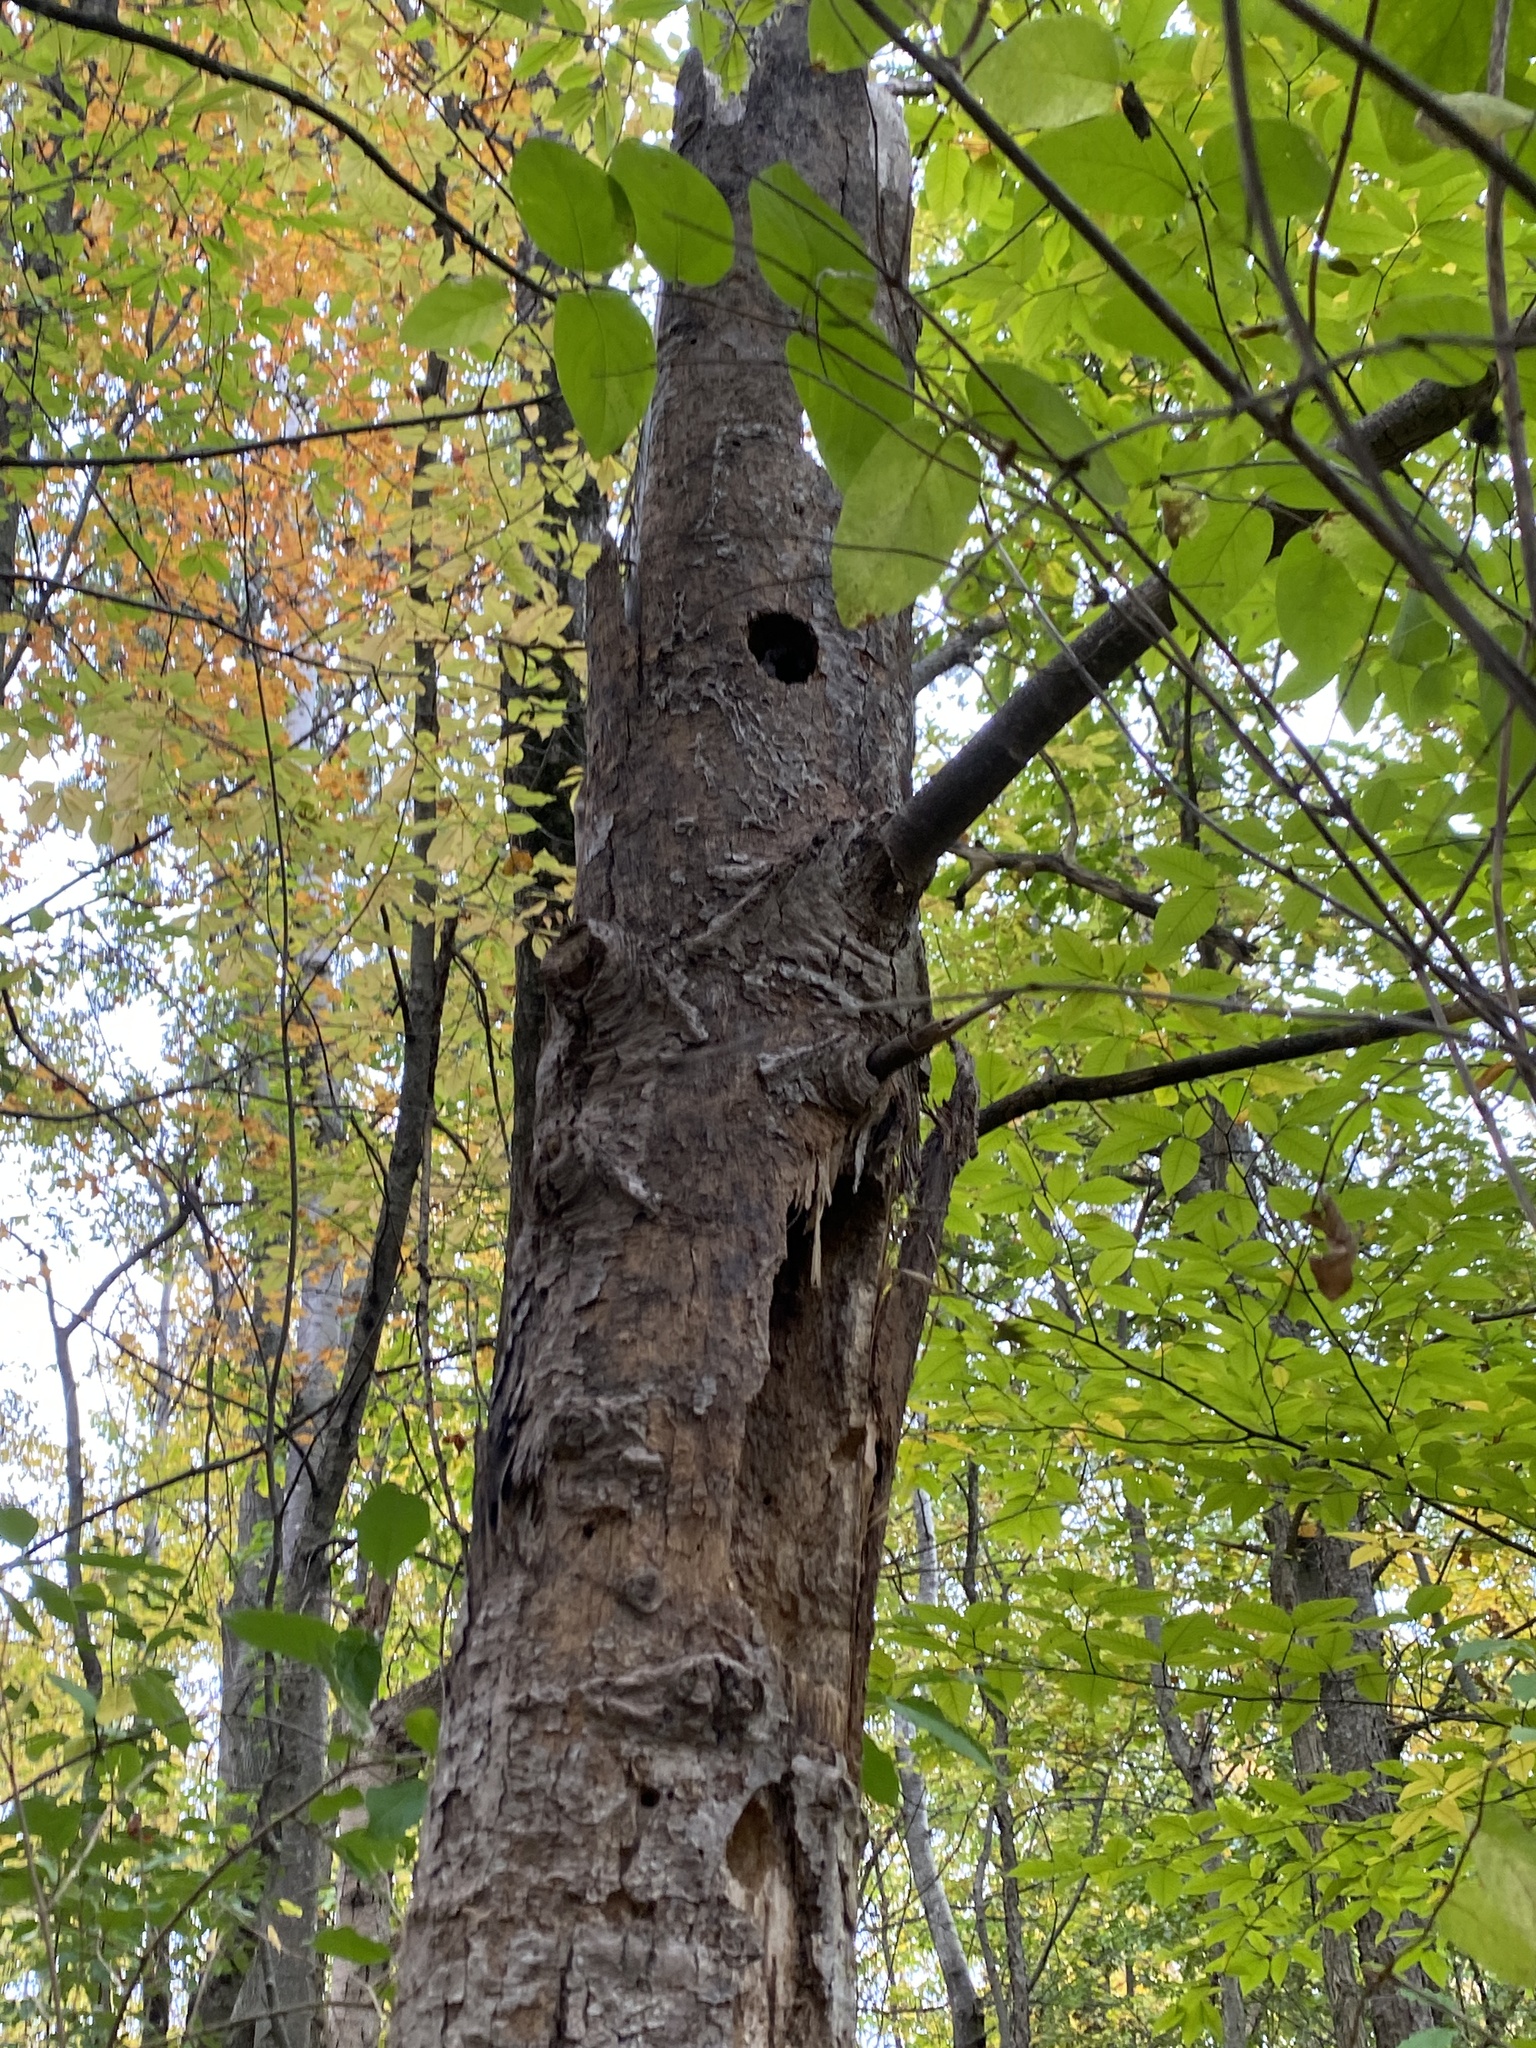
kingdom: Animalia
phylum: Chordata
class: Aves
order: Piciformes
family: Picidae
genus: Dryocopus
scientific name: Dryocopus pileatus
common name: Pileated woodpecker
